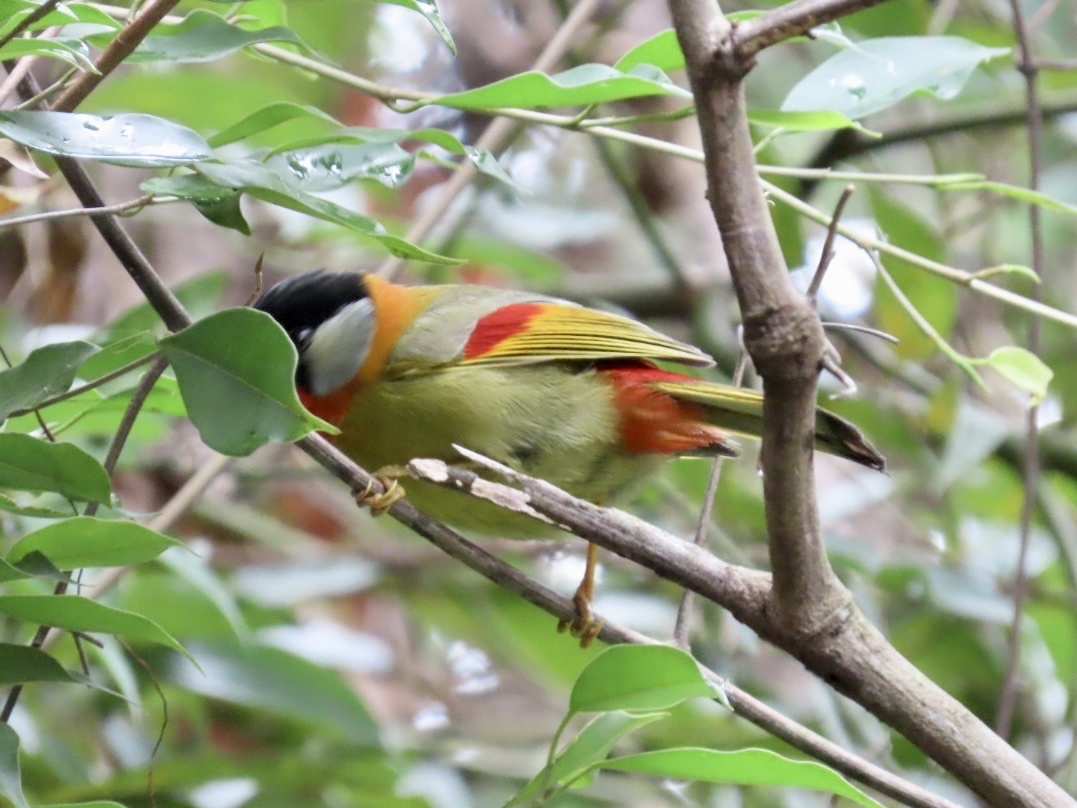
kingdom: Animalia
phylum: Chordata
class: Aves
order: Passeriformes
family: Leiothrichidae
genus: Leiothrix
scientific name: Leiothrix argentauris
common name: Silver-eared mesia
